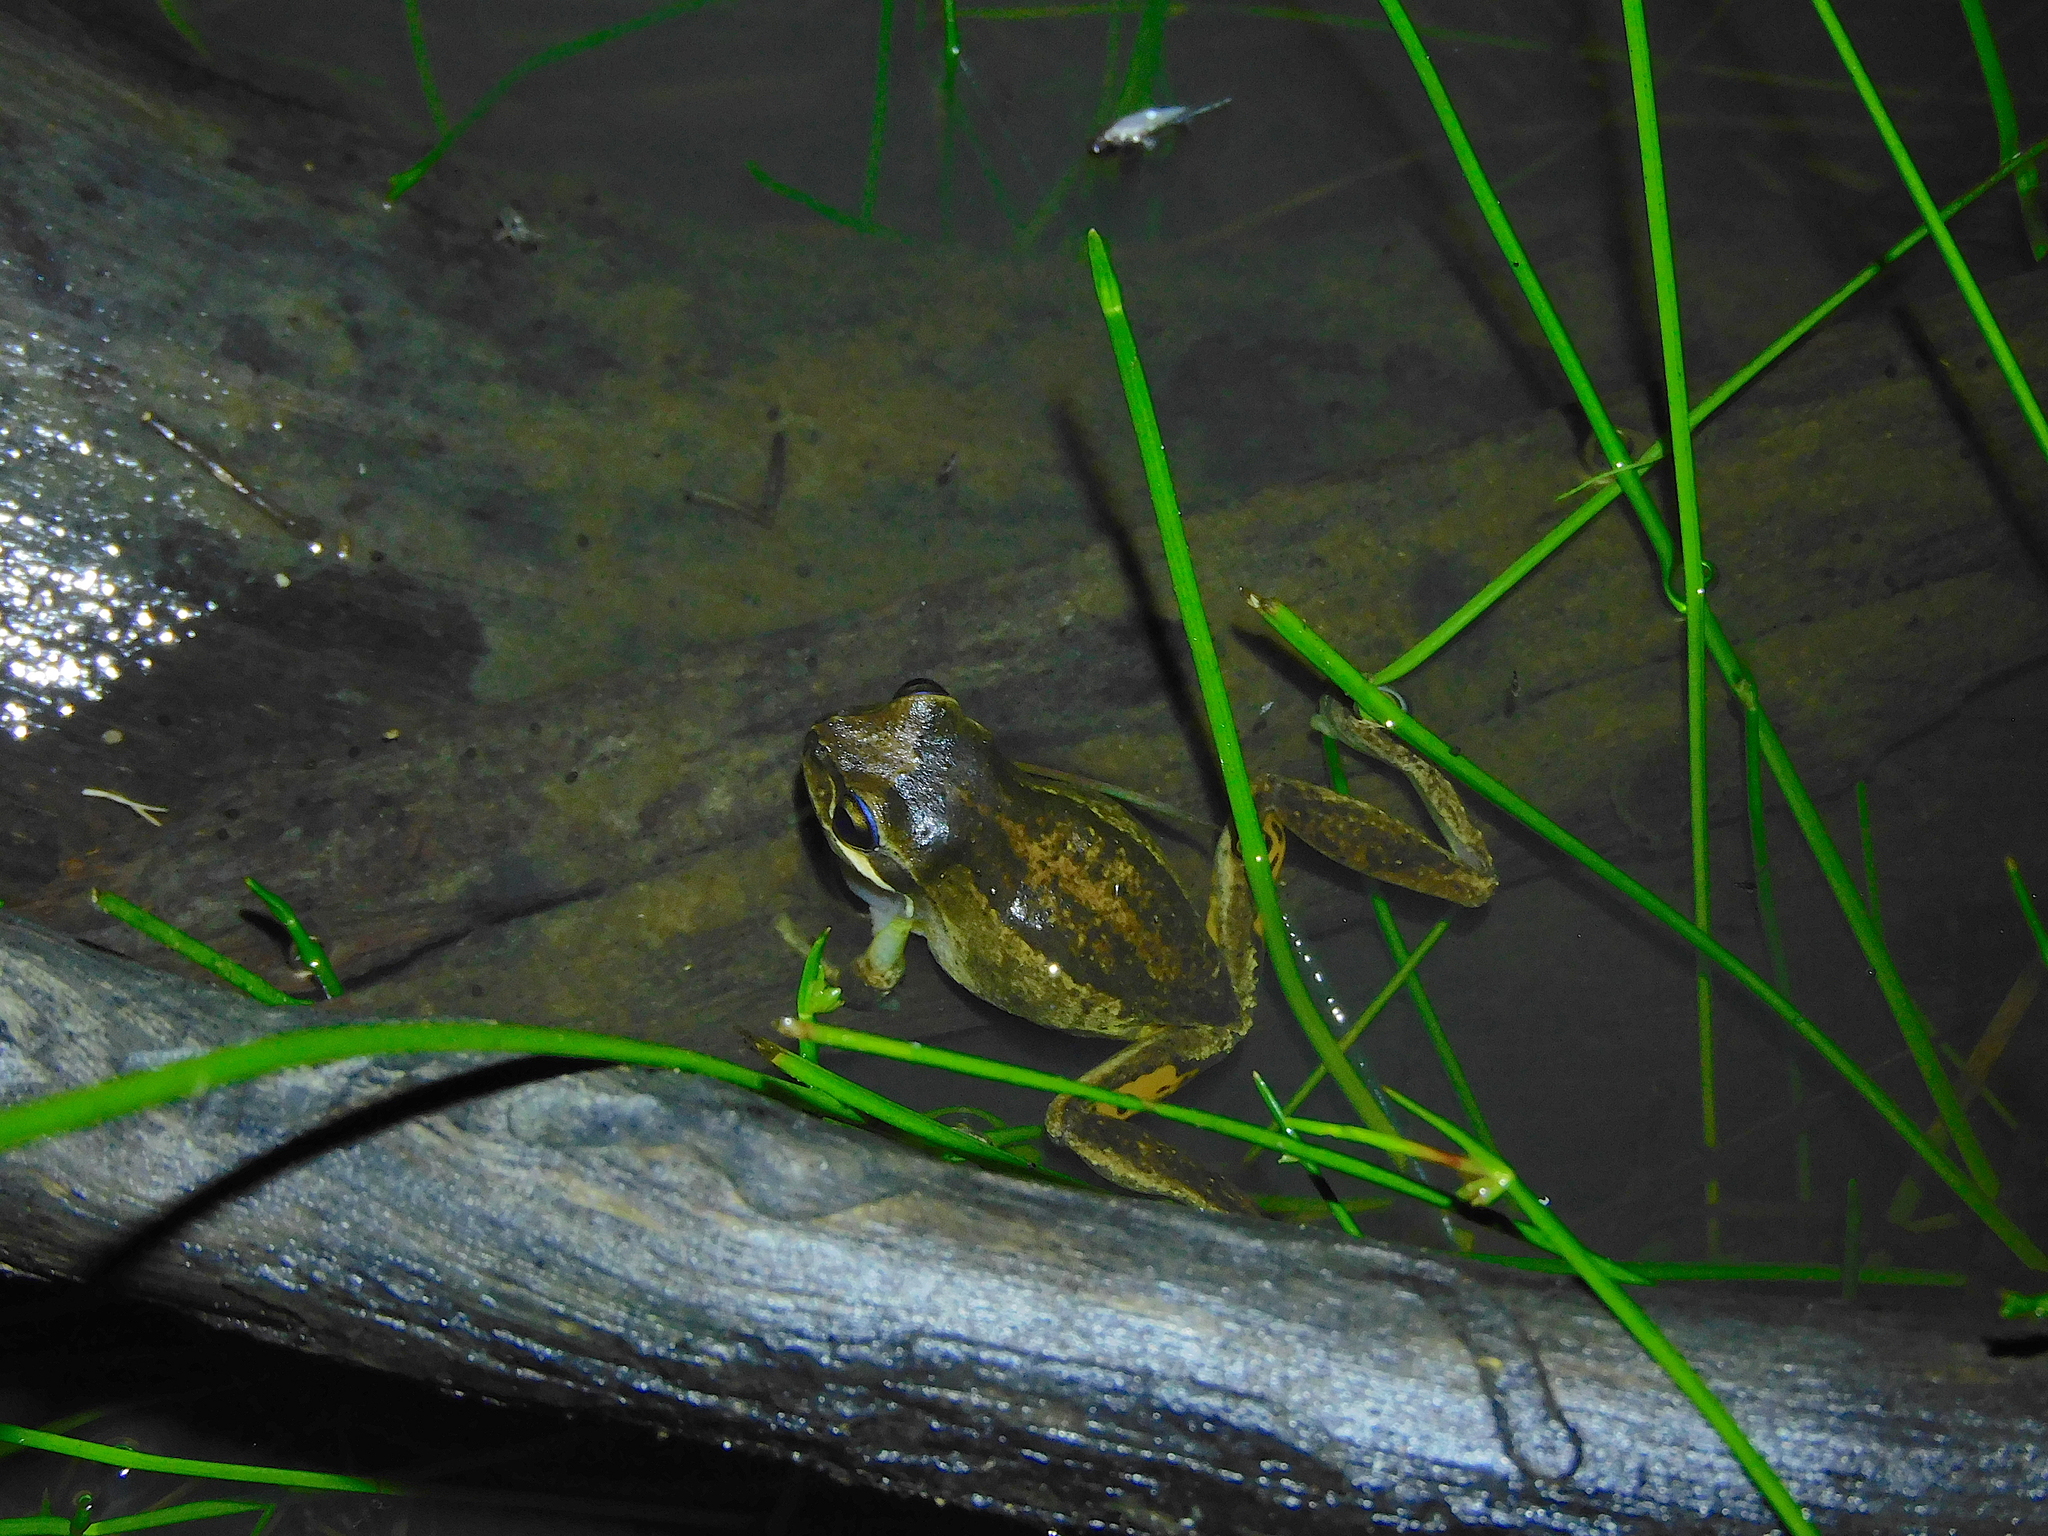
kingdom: Animalia
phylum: Chordata
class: Amphibia
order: Anura
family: Pelodryadidae
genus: Litoria
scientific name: Litoria ewingii
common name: Southern brown tree frog
